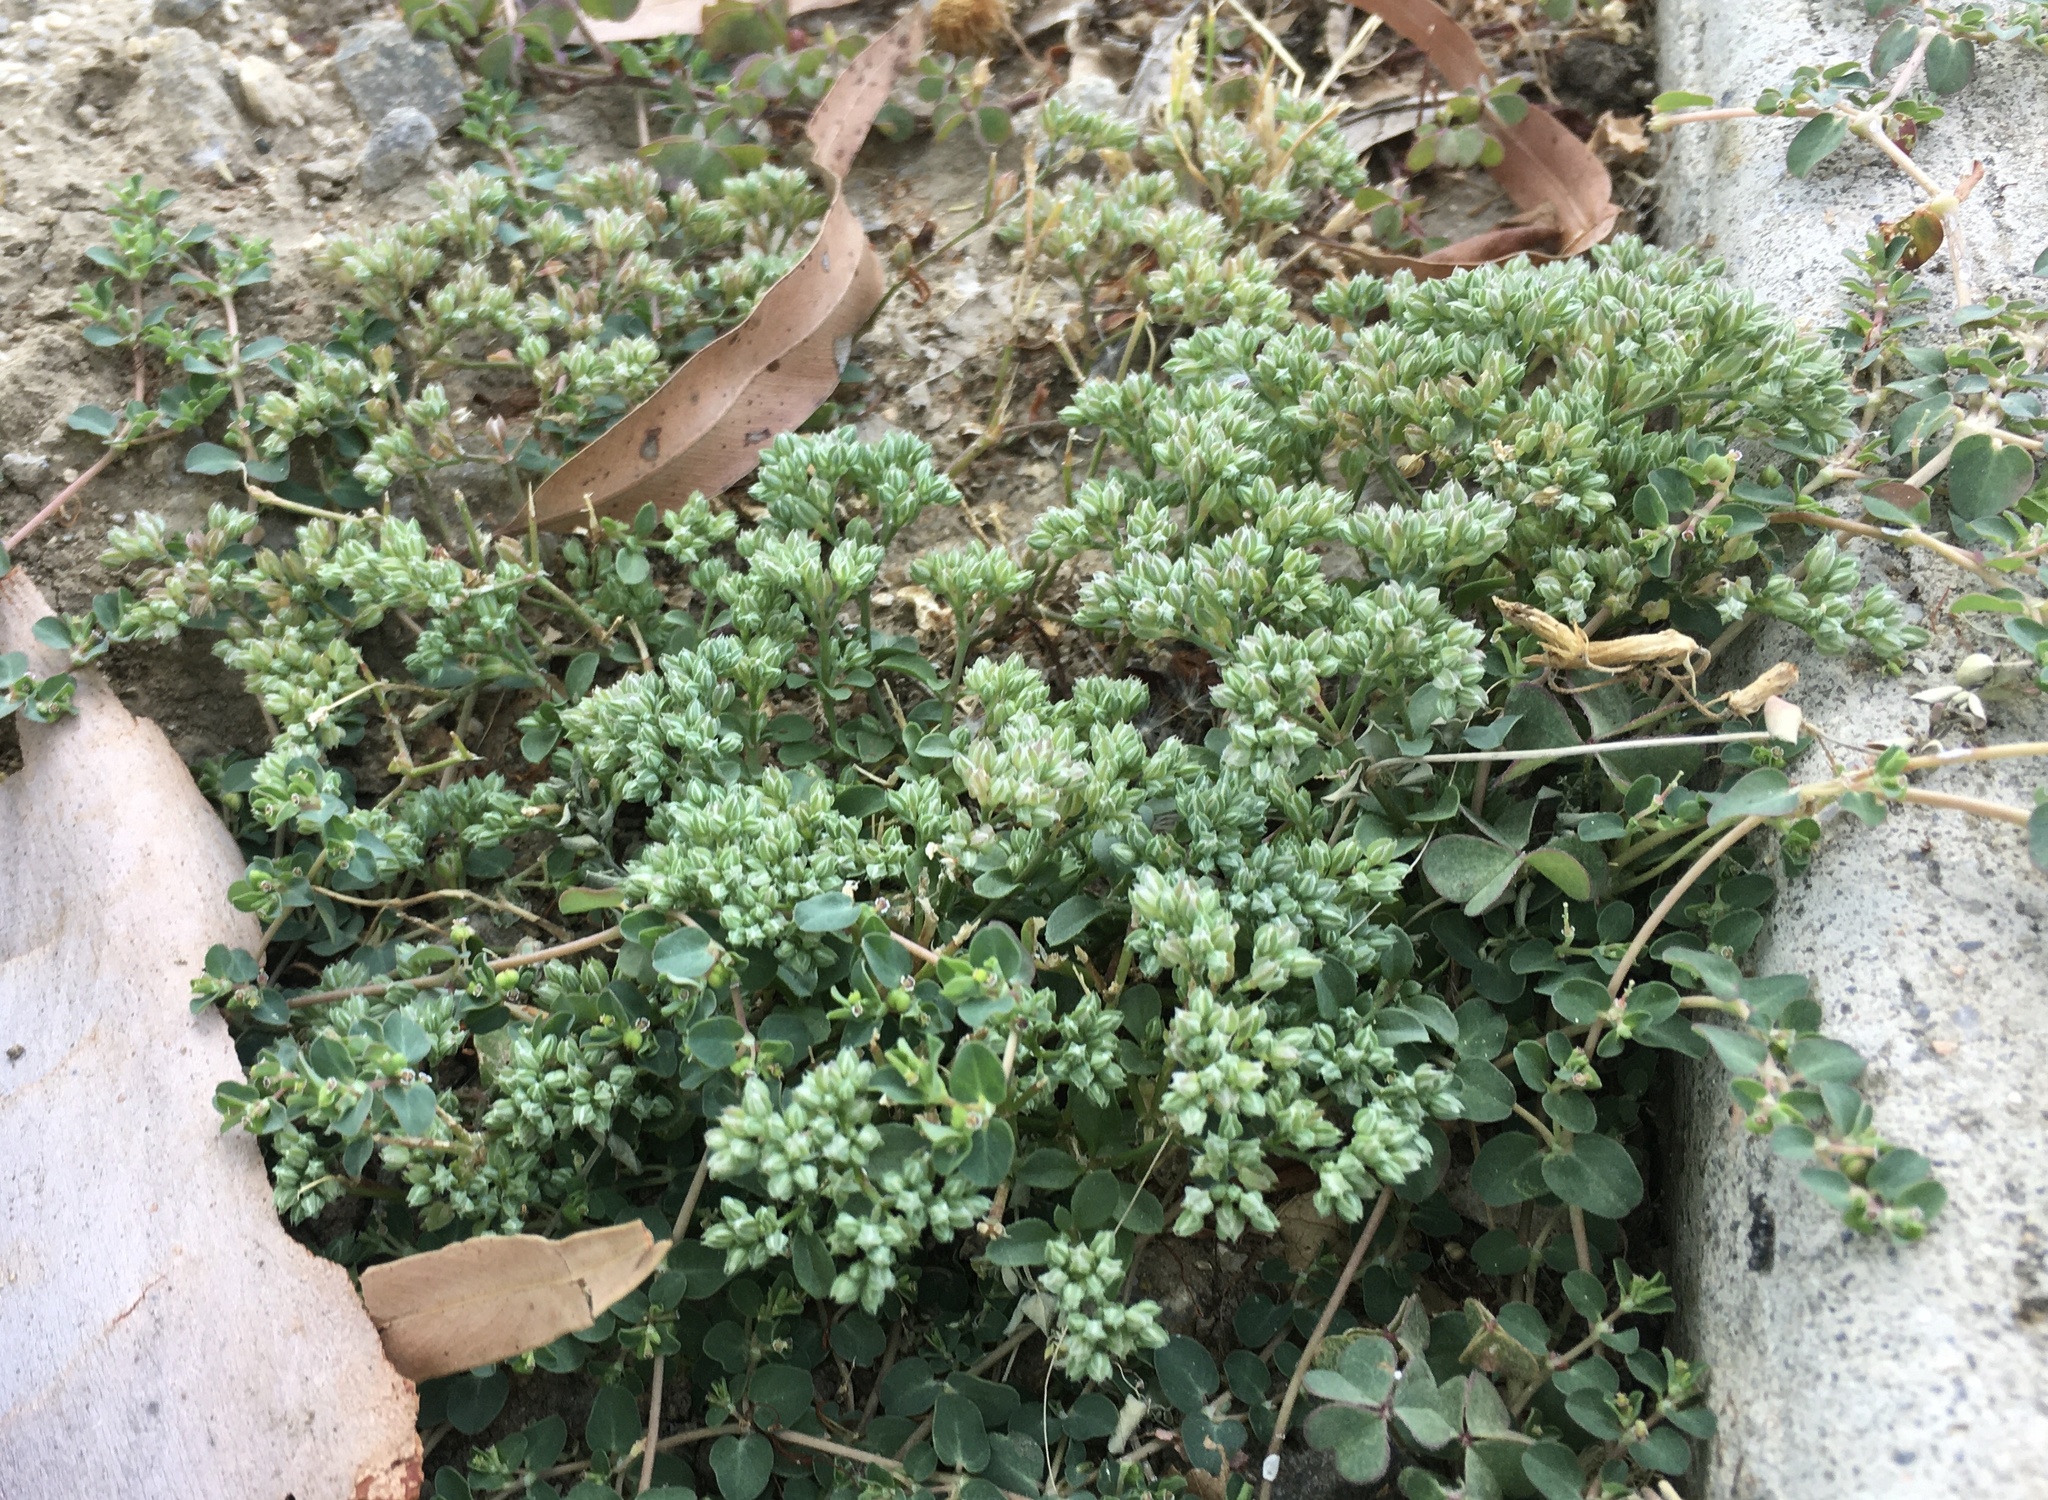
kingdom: Plantae
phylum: Tracheophyta
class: Magnoliopsida
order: Caryophyllales
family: Caryophyllaceae
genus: Polycarpon
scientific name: Polycarpon tetraphyllum
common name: Four-leaved all-seed
